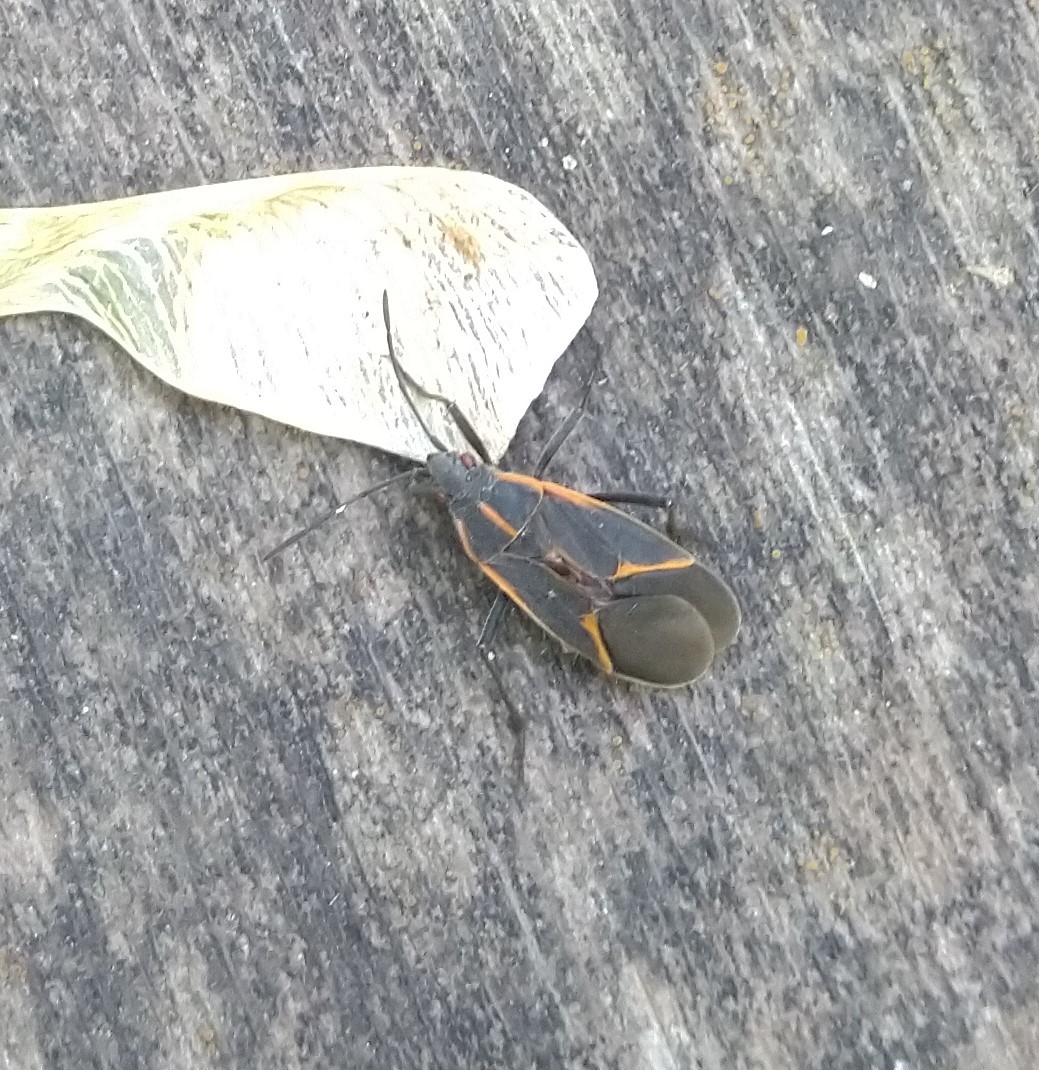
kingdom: Animalia
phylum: Arthropoda
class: Insecta
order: Hemiptera
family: Rhopalidae
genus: Boisea
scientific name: Boisea trivittata
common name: Boxelder bug
